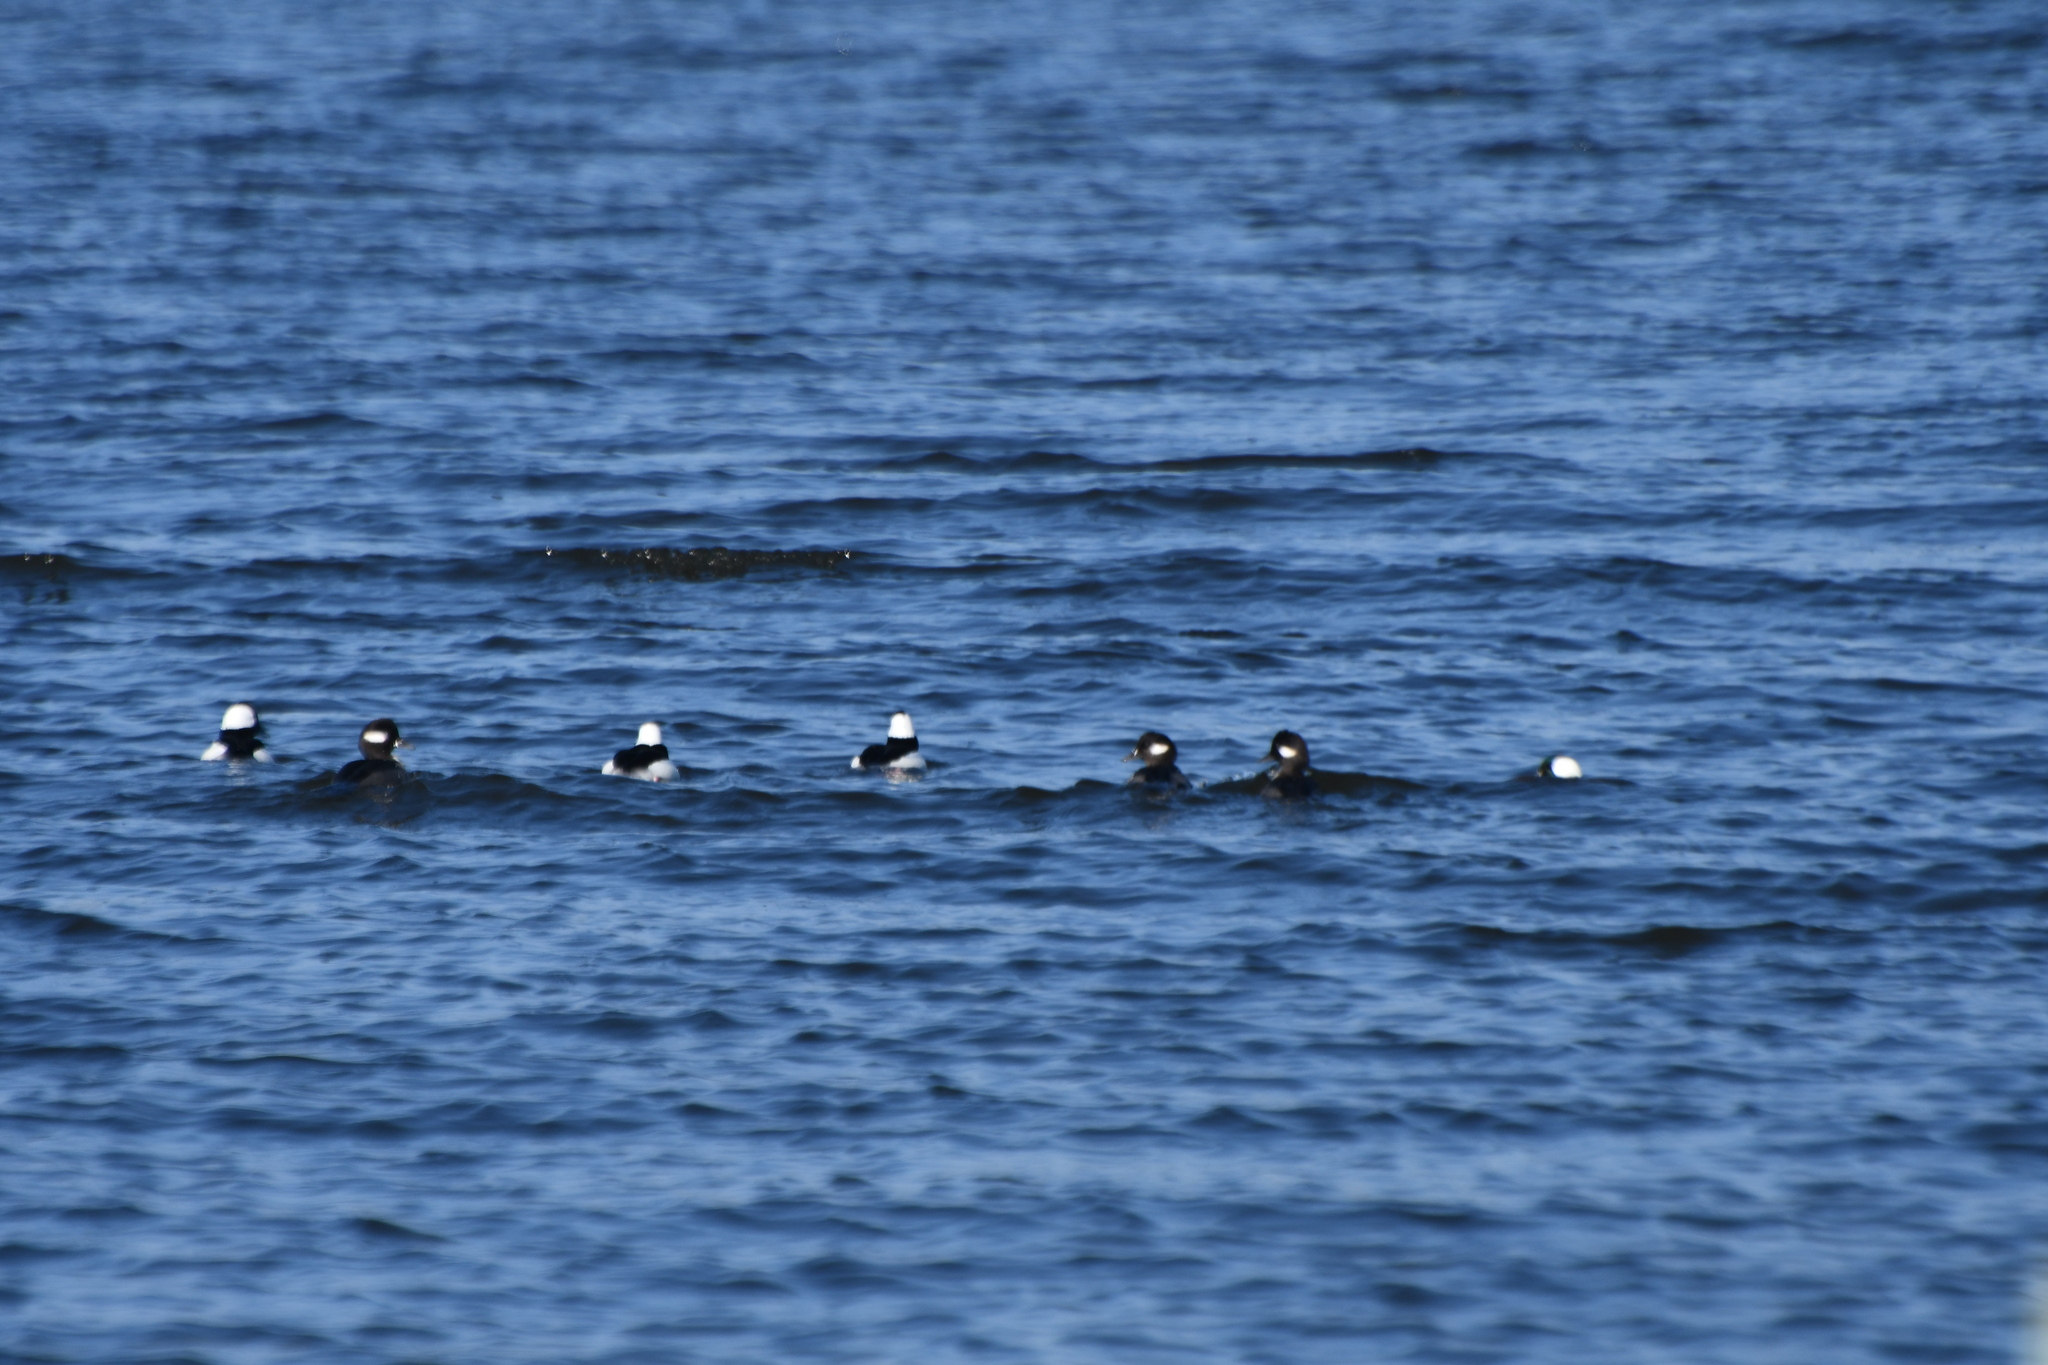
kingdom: Animalia
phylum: Chordata
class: Aves
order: Anseriformes
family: Anatidae
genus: Bucephala
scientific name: Bucephala albeola
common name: Bufflehead
